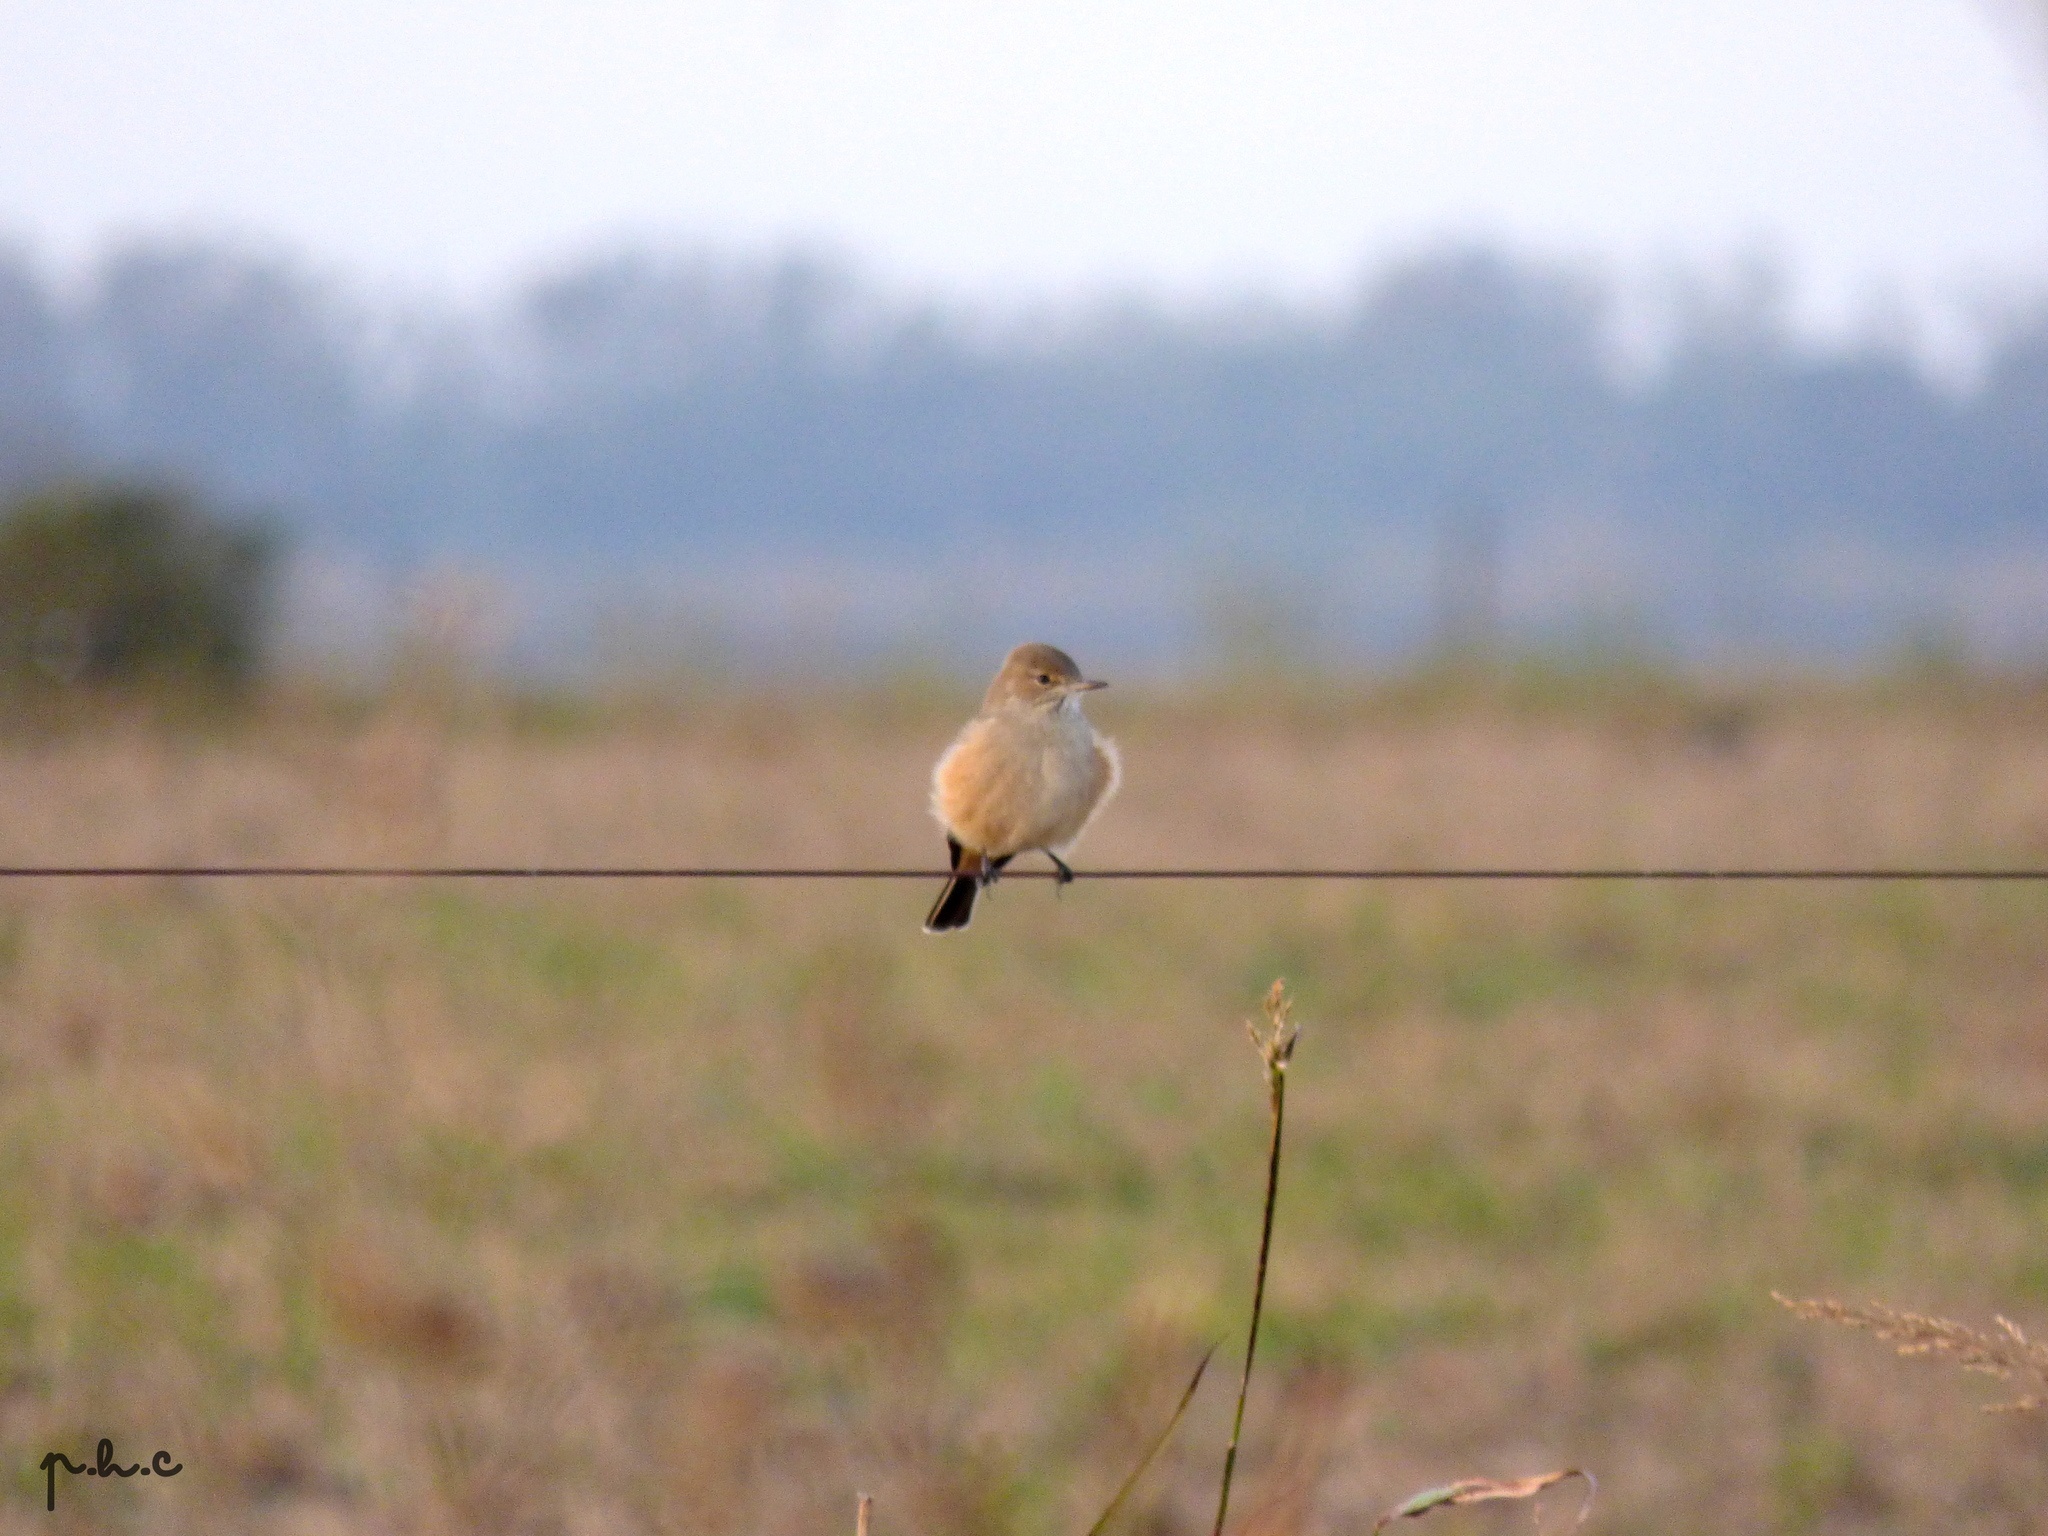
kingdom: Animalia
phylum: Chordata
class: Aves
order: Passeriformes
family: Tyrannidae
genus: Agriornis
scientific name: Agriornis murinus
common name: Lesser shrike-tyrant
